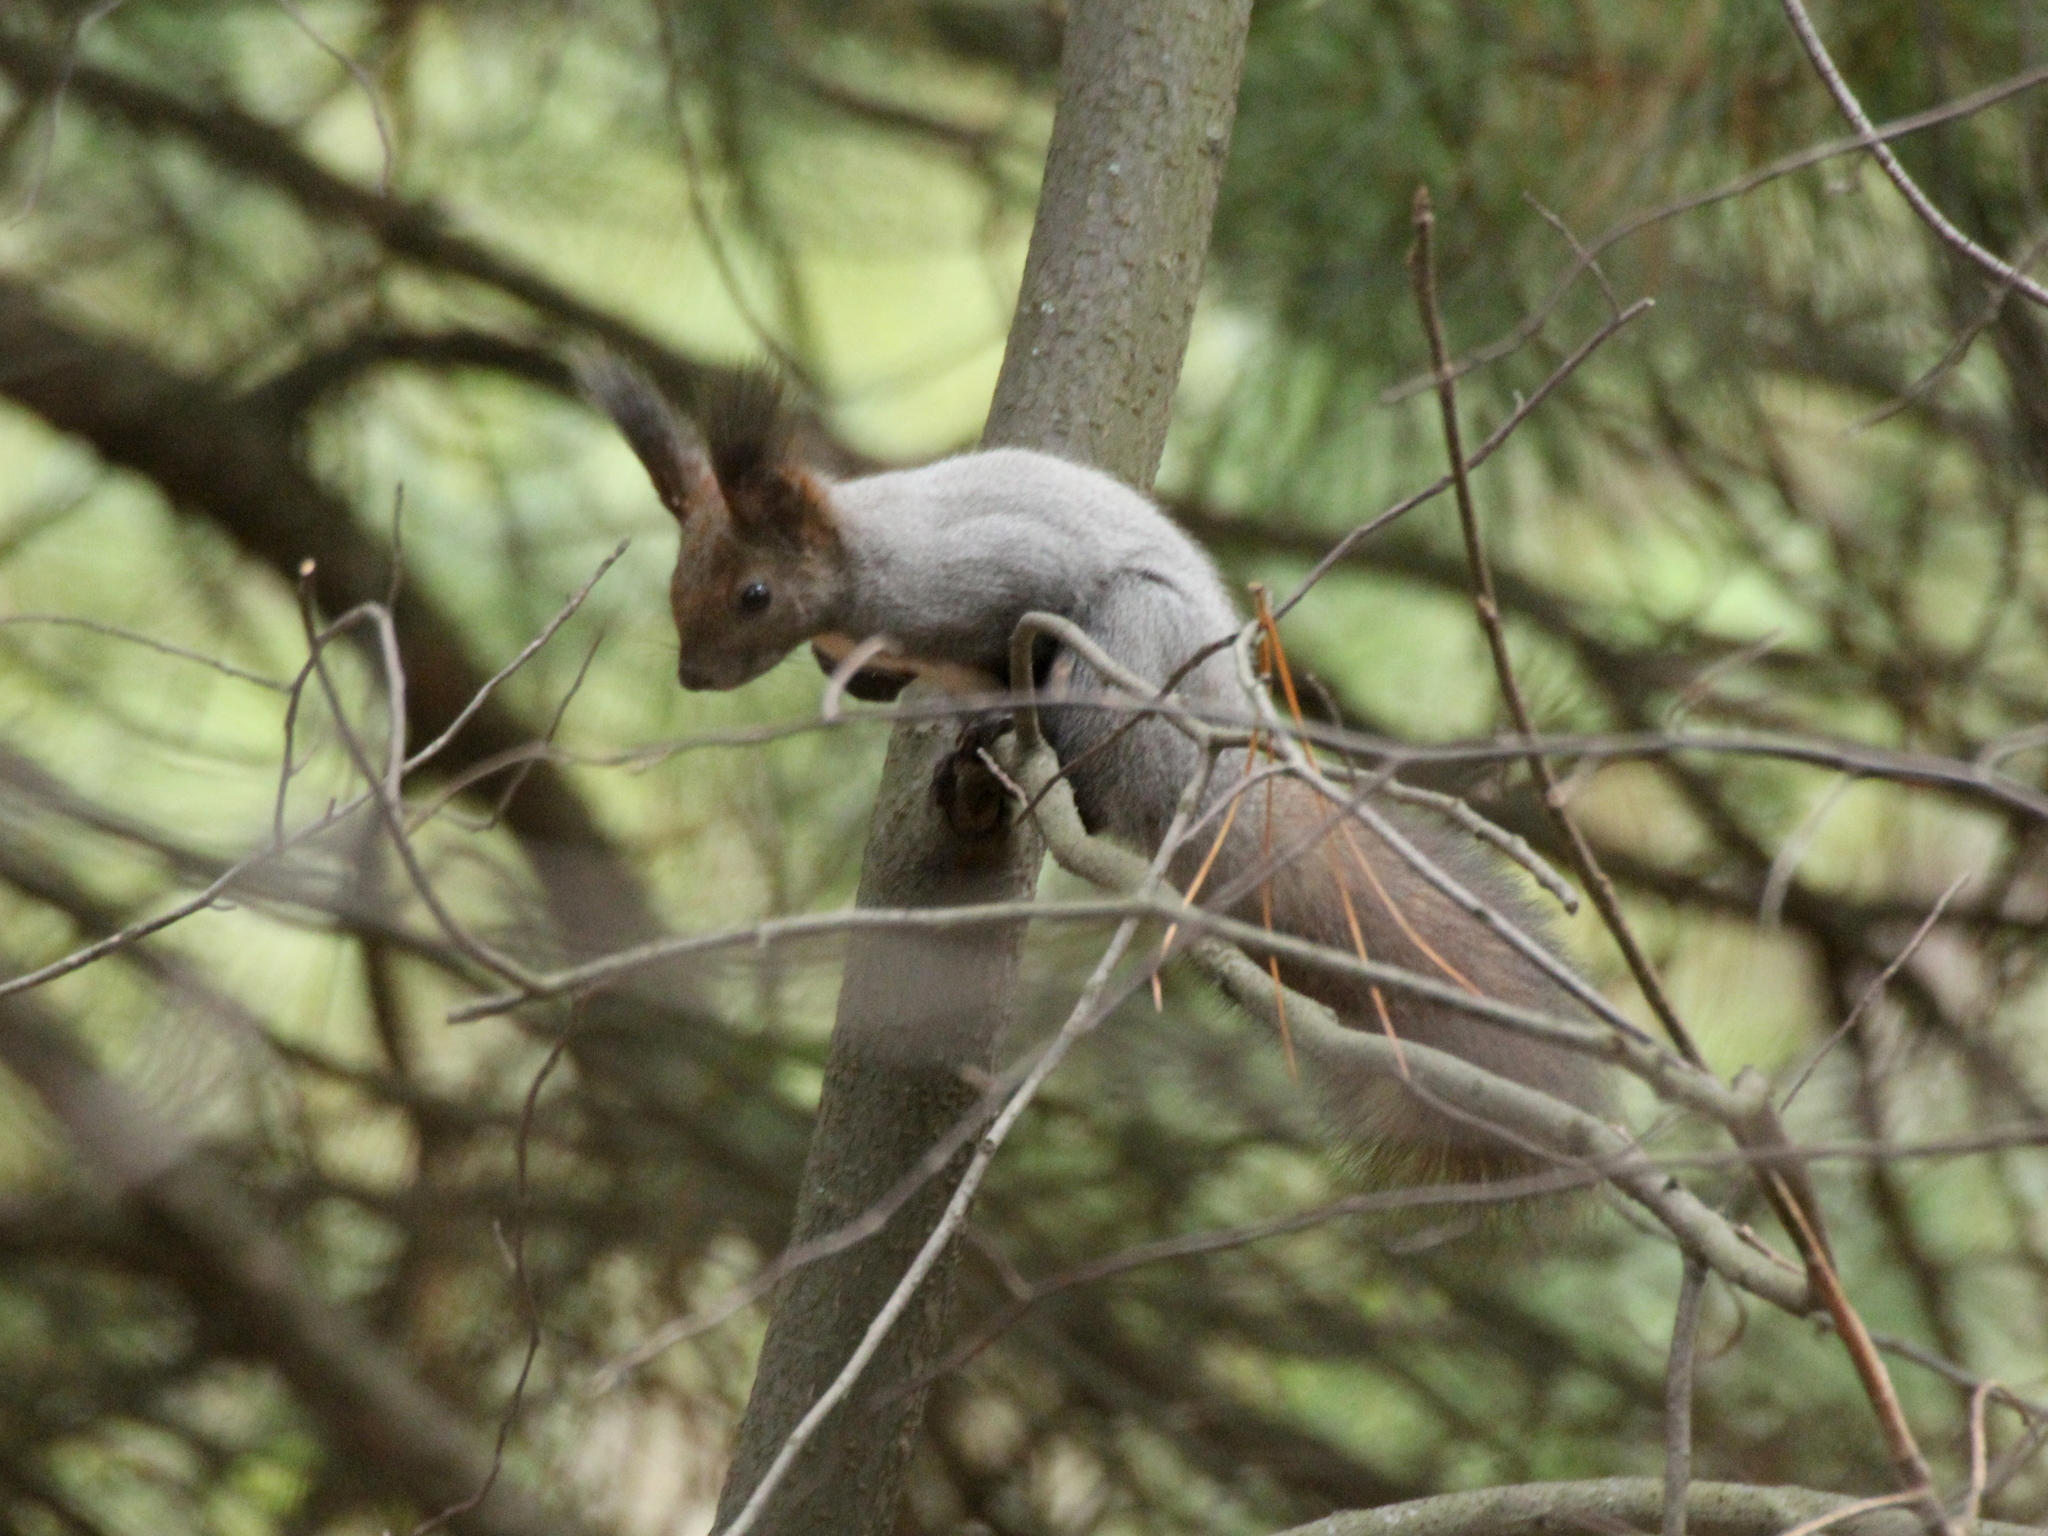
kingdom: Animalia
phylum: Chordata
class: Mammalia
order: Rodentia
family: Sciuridae
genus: Sciurus
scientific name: Sciurus vulgaris
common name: Eurasian red squirrel
